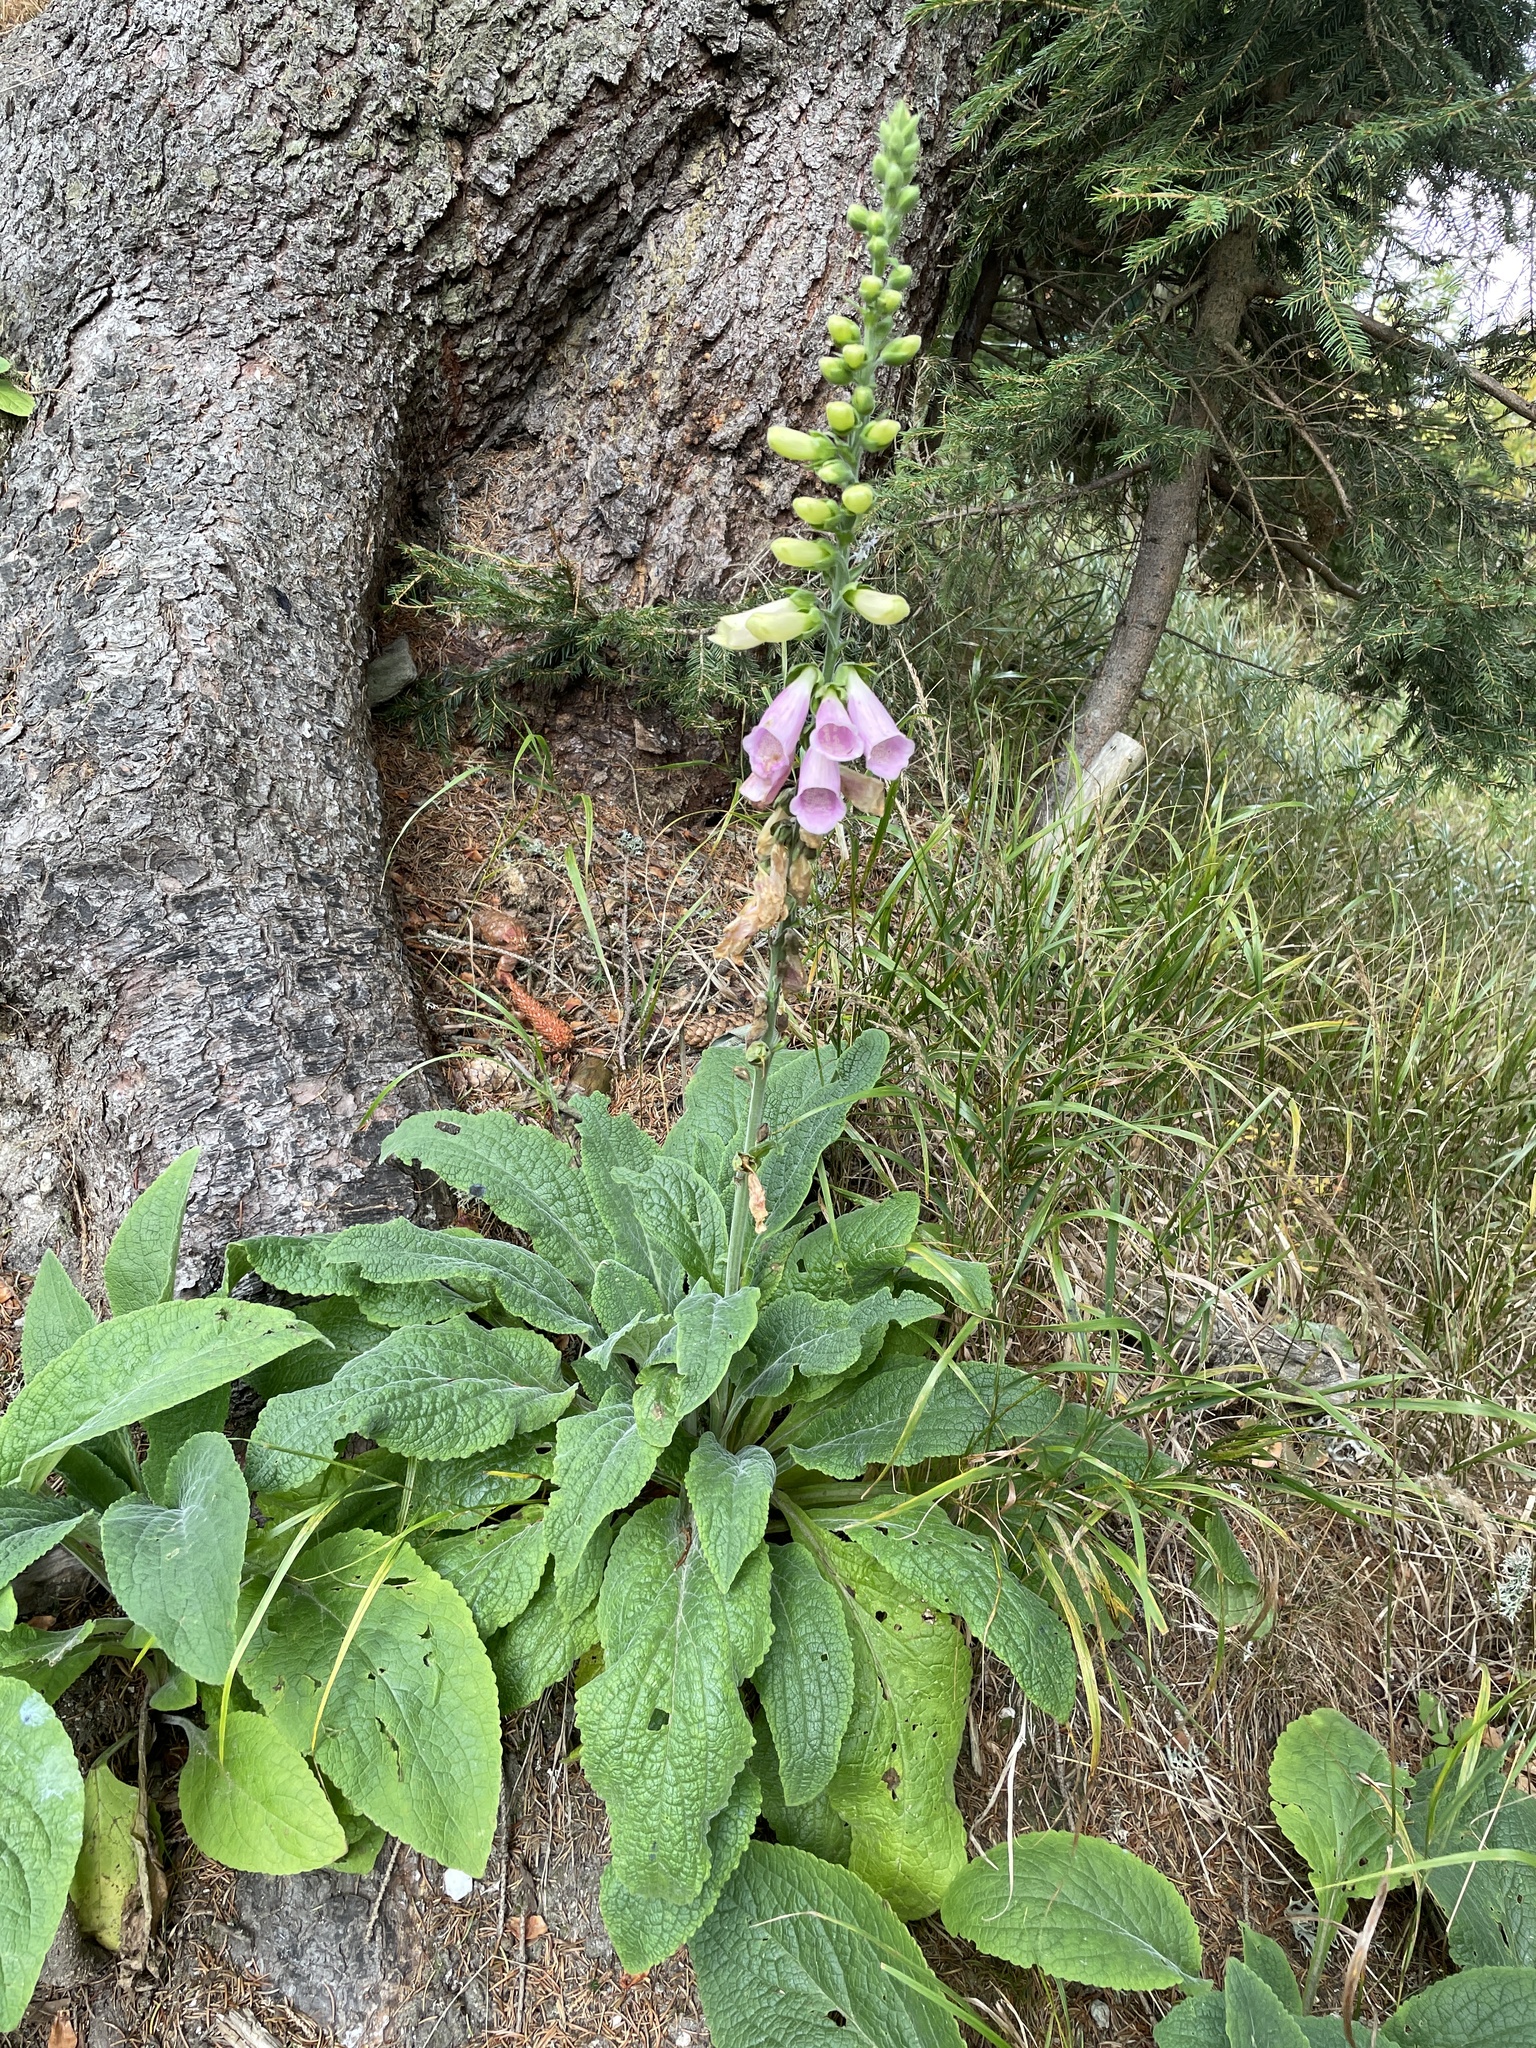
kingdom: Plantae
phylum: Tracheophyta
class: Magnoliopsida
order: Lamiales
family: Plantaginaceae
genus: Digitalis
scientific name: Digitalis purpurea
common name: Foxglove
